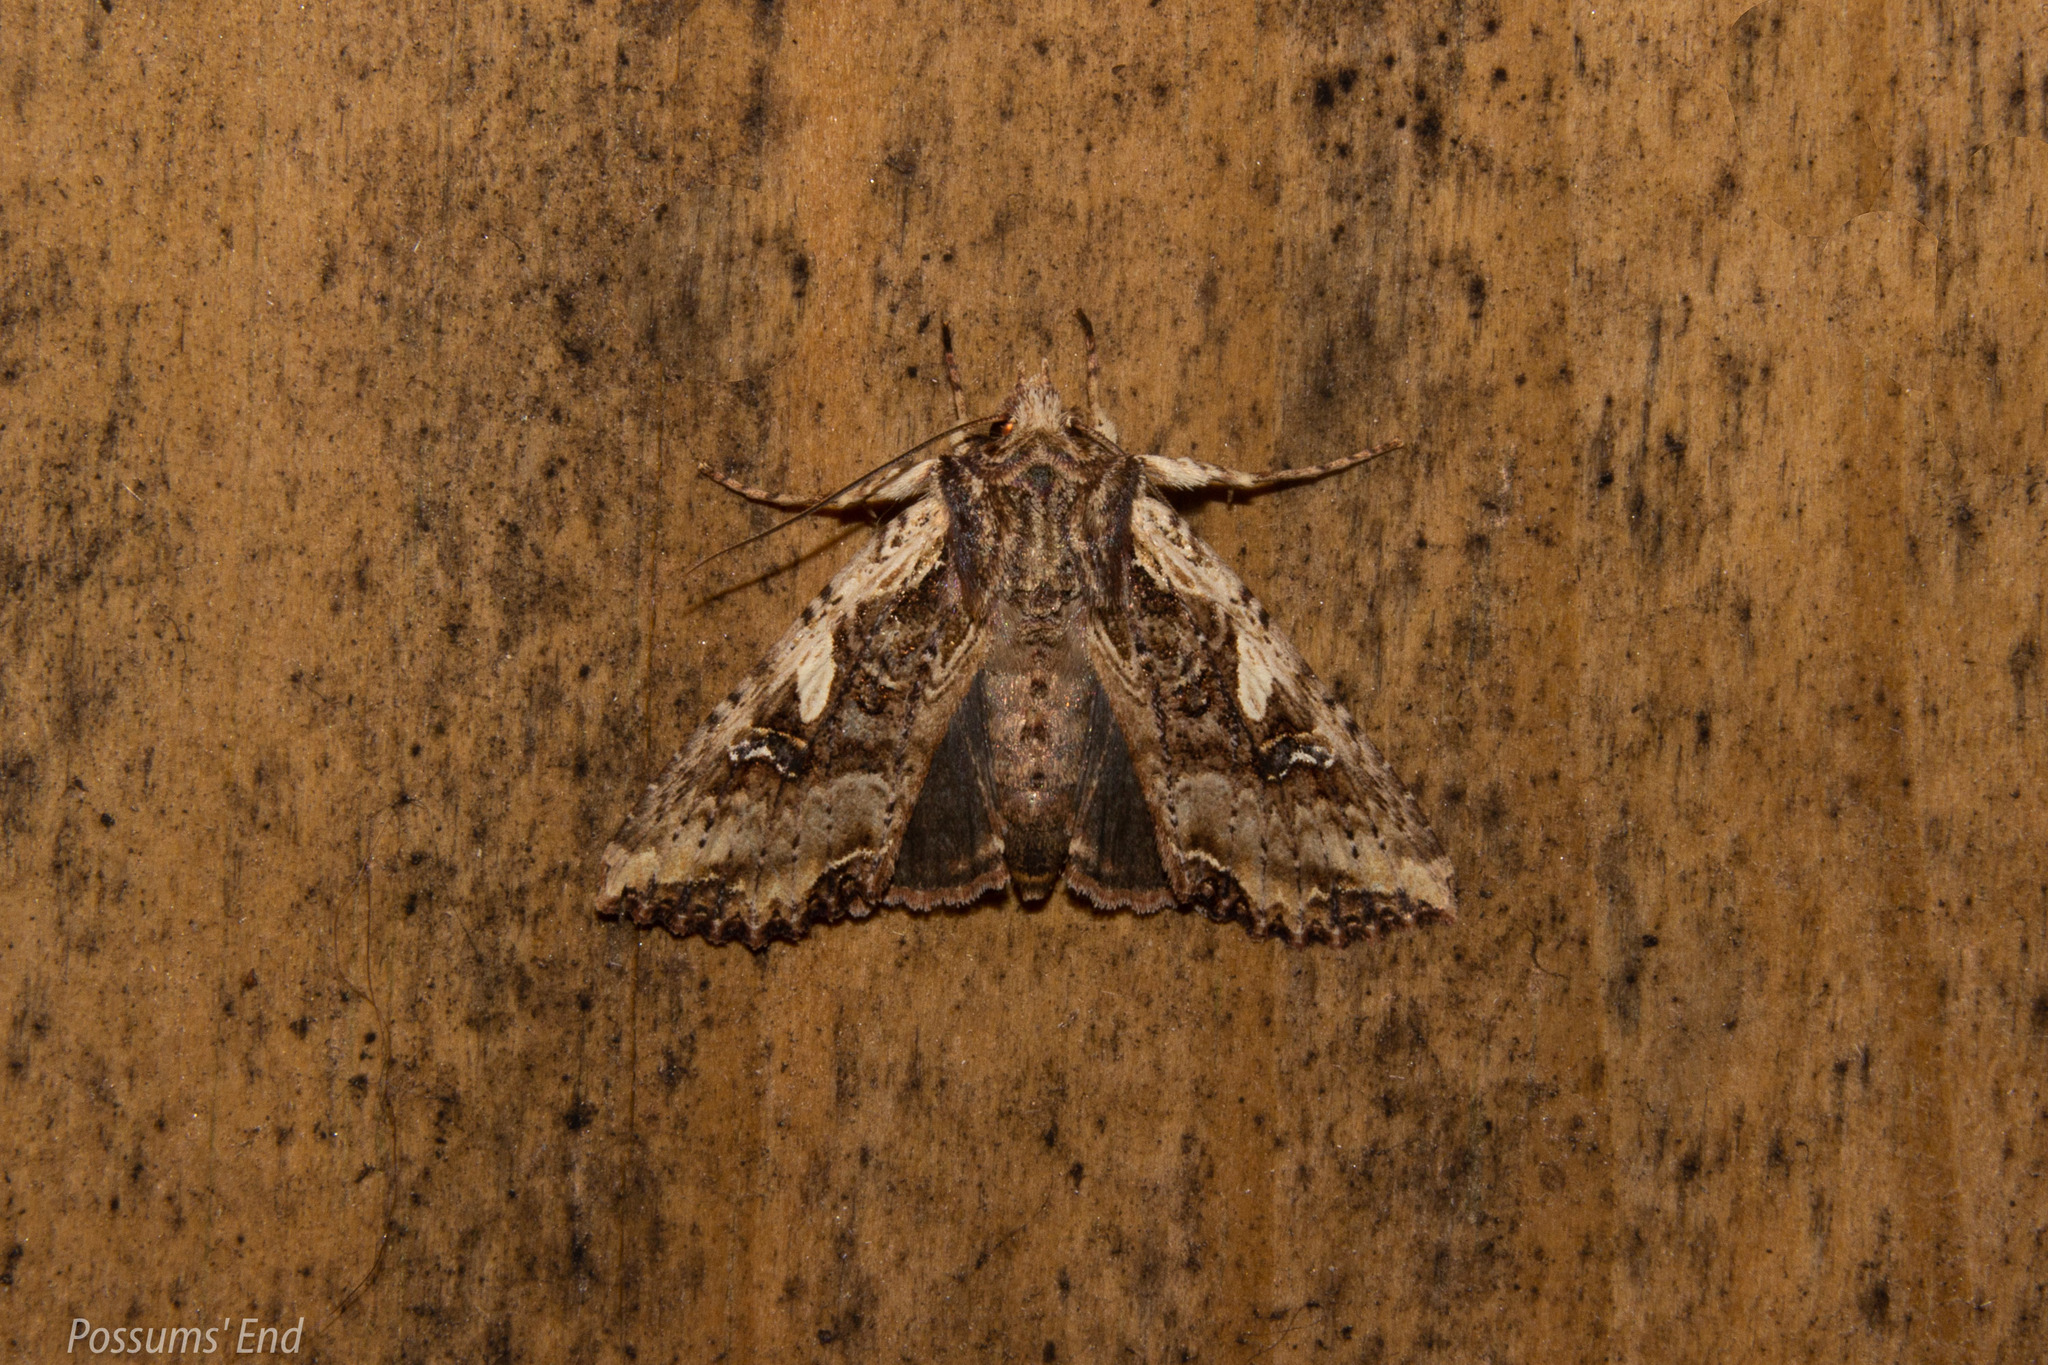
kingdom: Animalia
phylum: Arthropoda
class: Insecta
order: Lepidoptera
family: Noctuidae
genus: Meterana
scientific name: Meterana stipata
